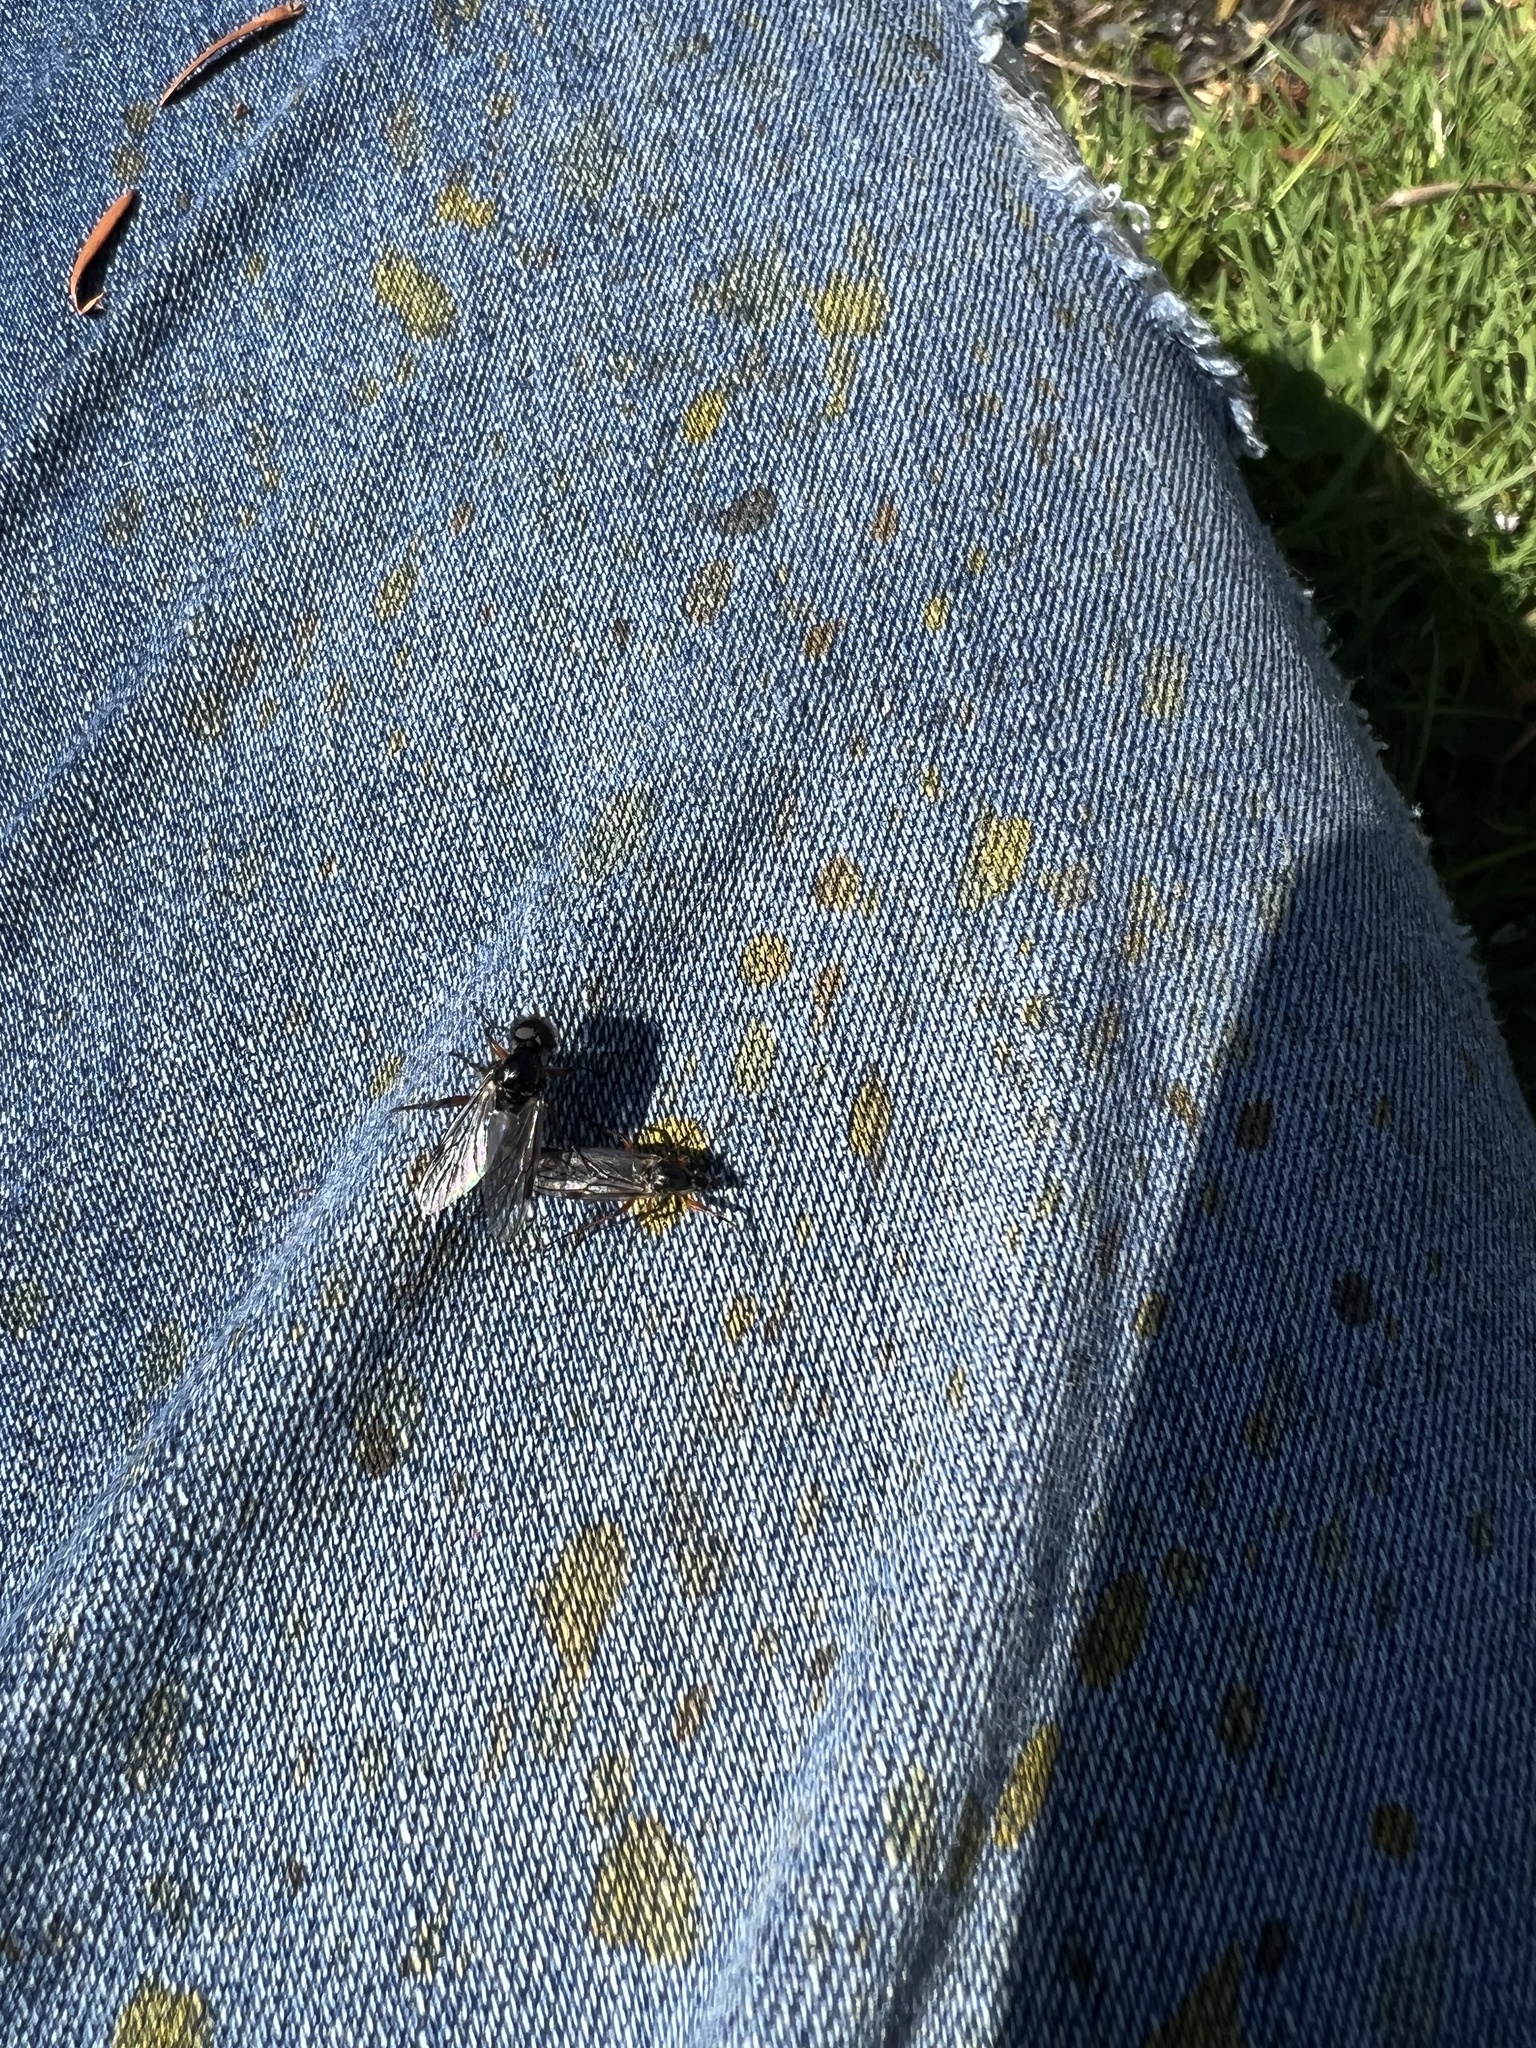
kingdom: Animalia
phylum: Arthropoda
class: Insecta
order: Diptera
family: Bibionidae
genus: Bibio
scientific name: Bibio xanthopus
